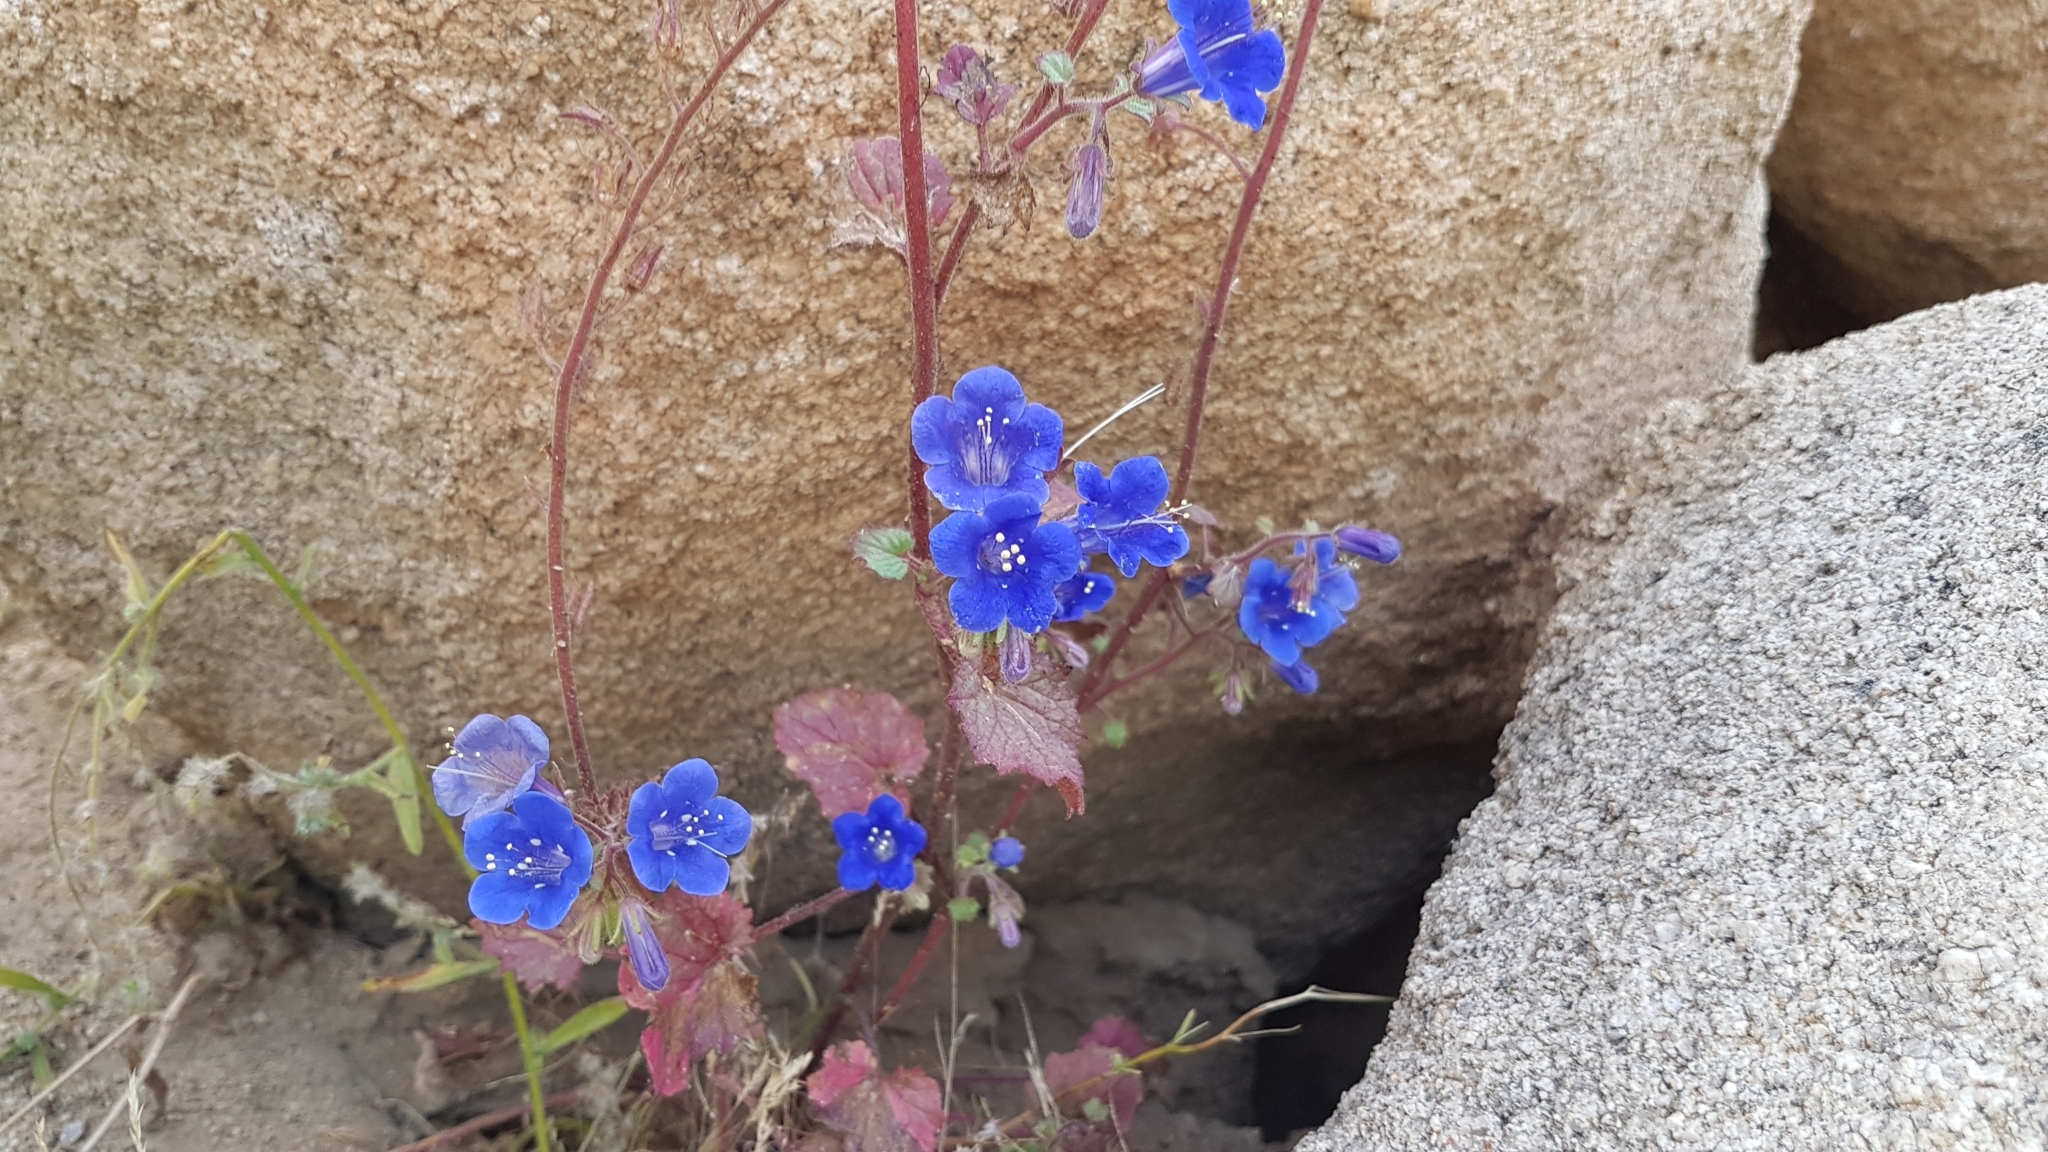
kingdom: Plantae
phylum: Tracheophyta
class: Magnoliopsida
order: Boraginales
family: Hydrophyllaceae
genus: Phacelia
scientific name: Phacelia campanularia
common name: California bluebell
